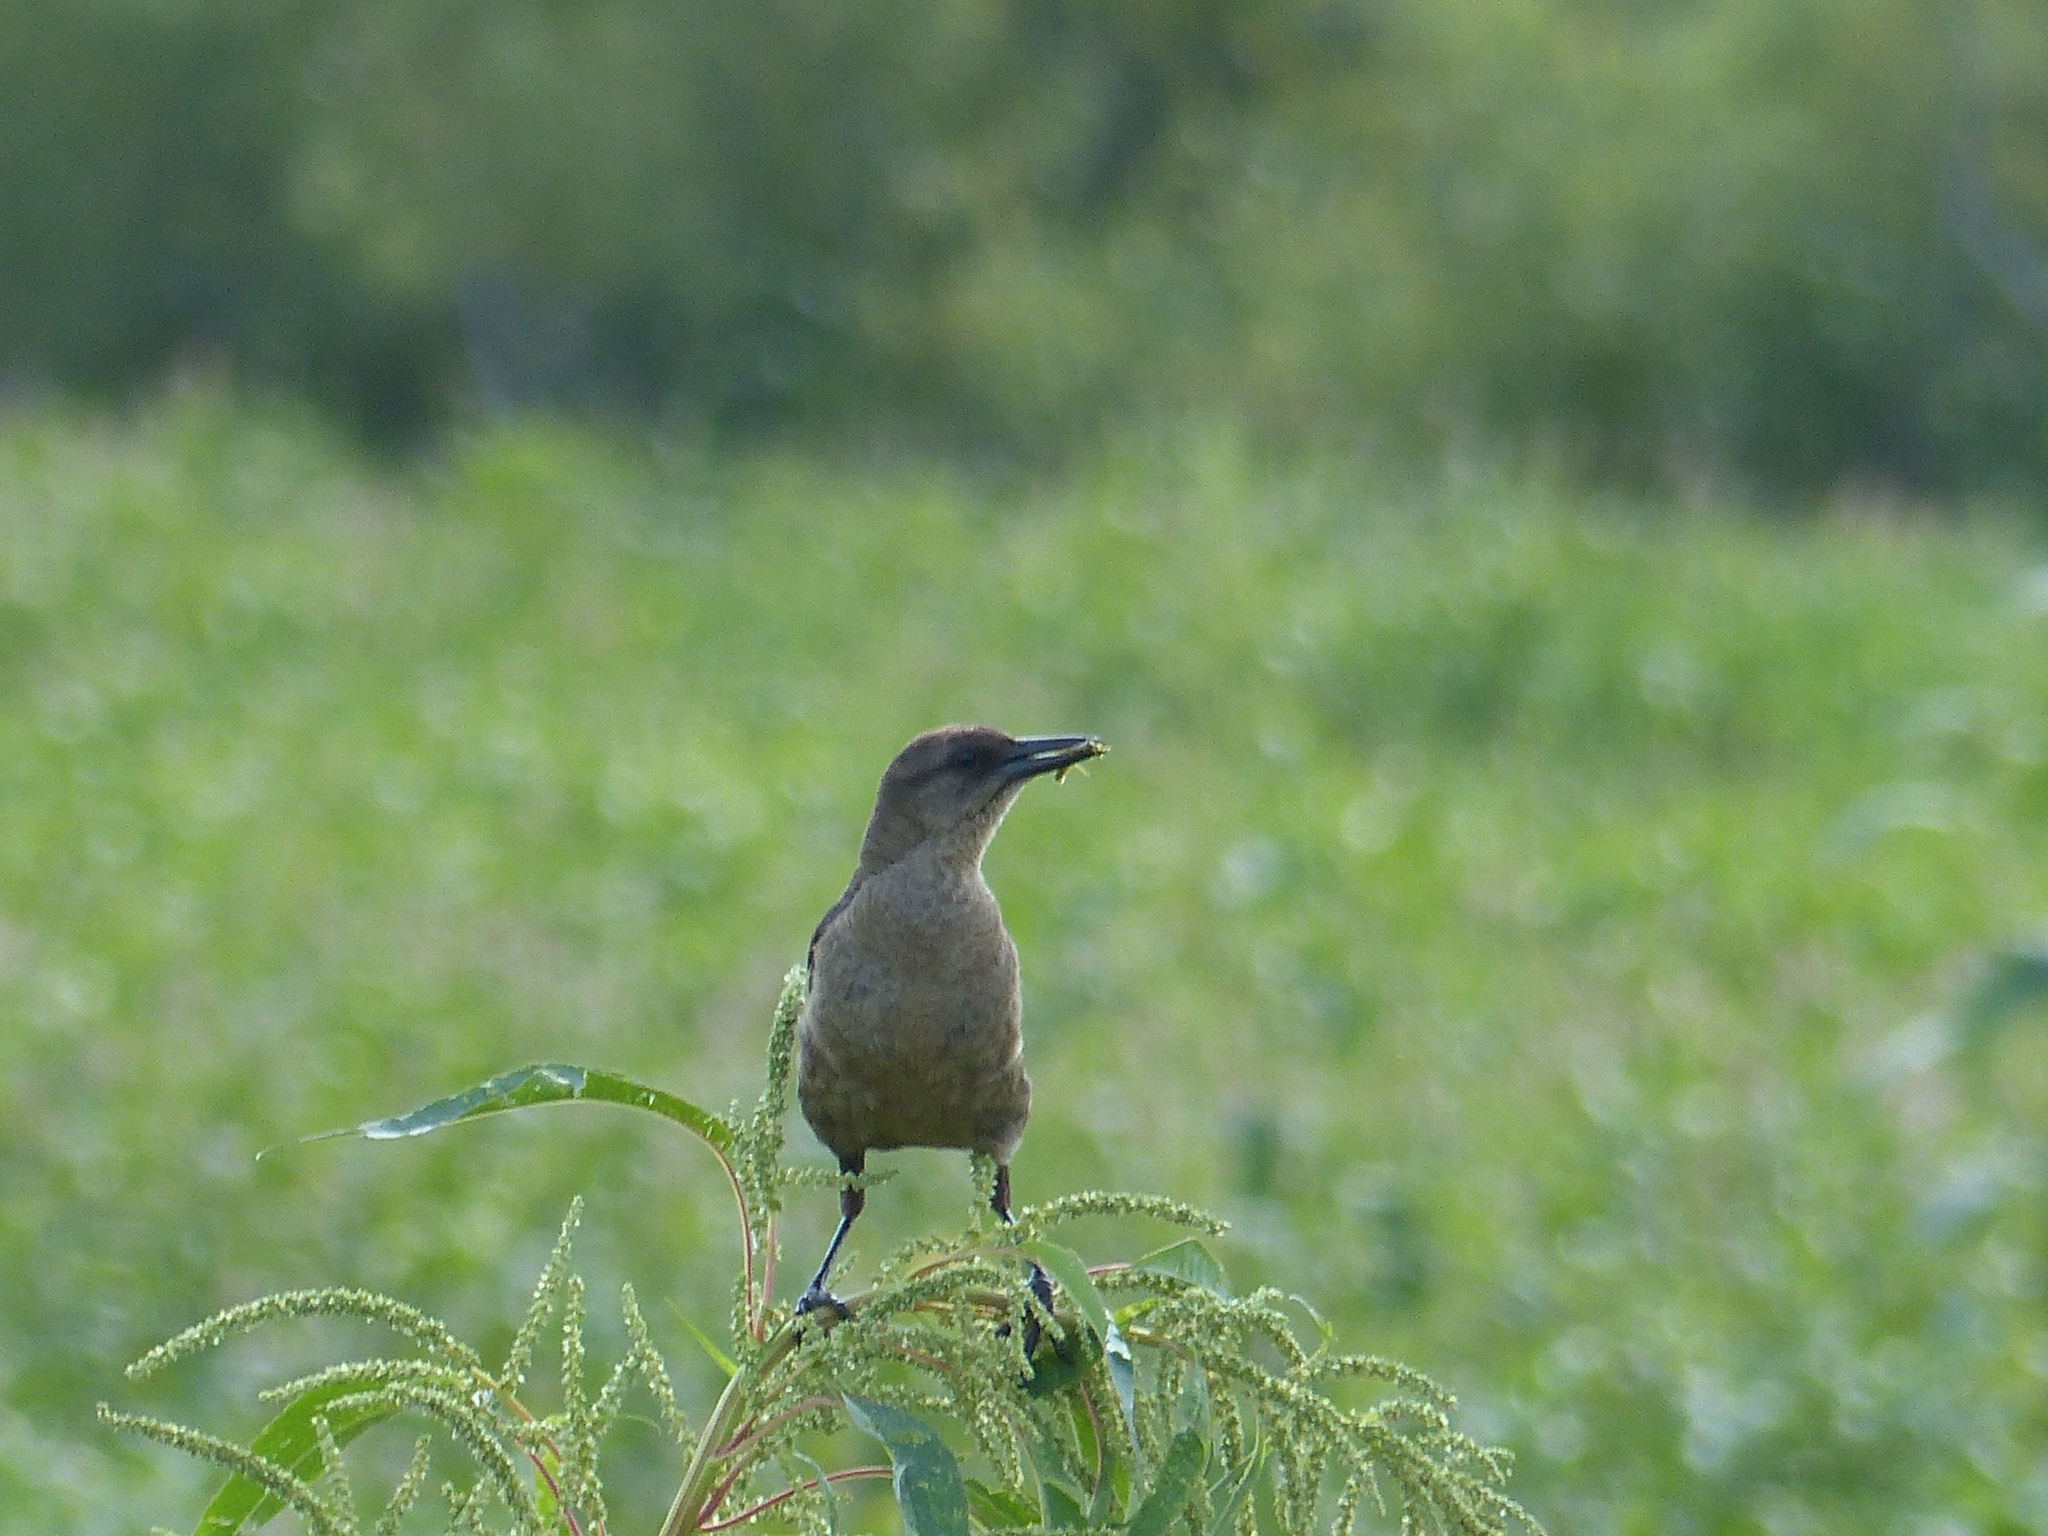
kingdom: Animalia
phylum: Chordata
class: Aves
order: Passeriformes
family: Icteridae
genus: Quiscalus
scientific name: Quiscalus major
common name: Boat-tailed grackle
